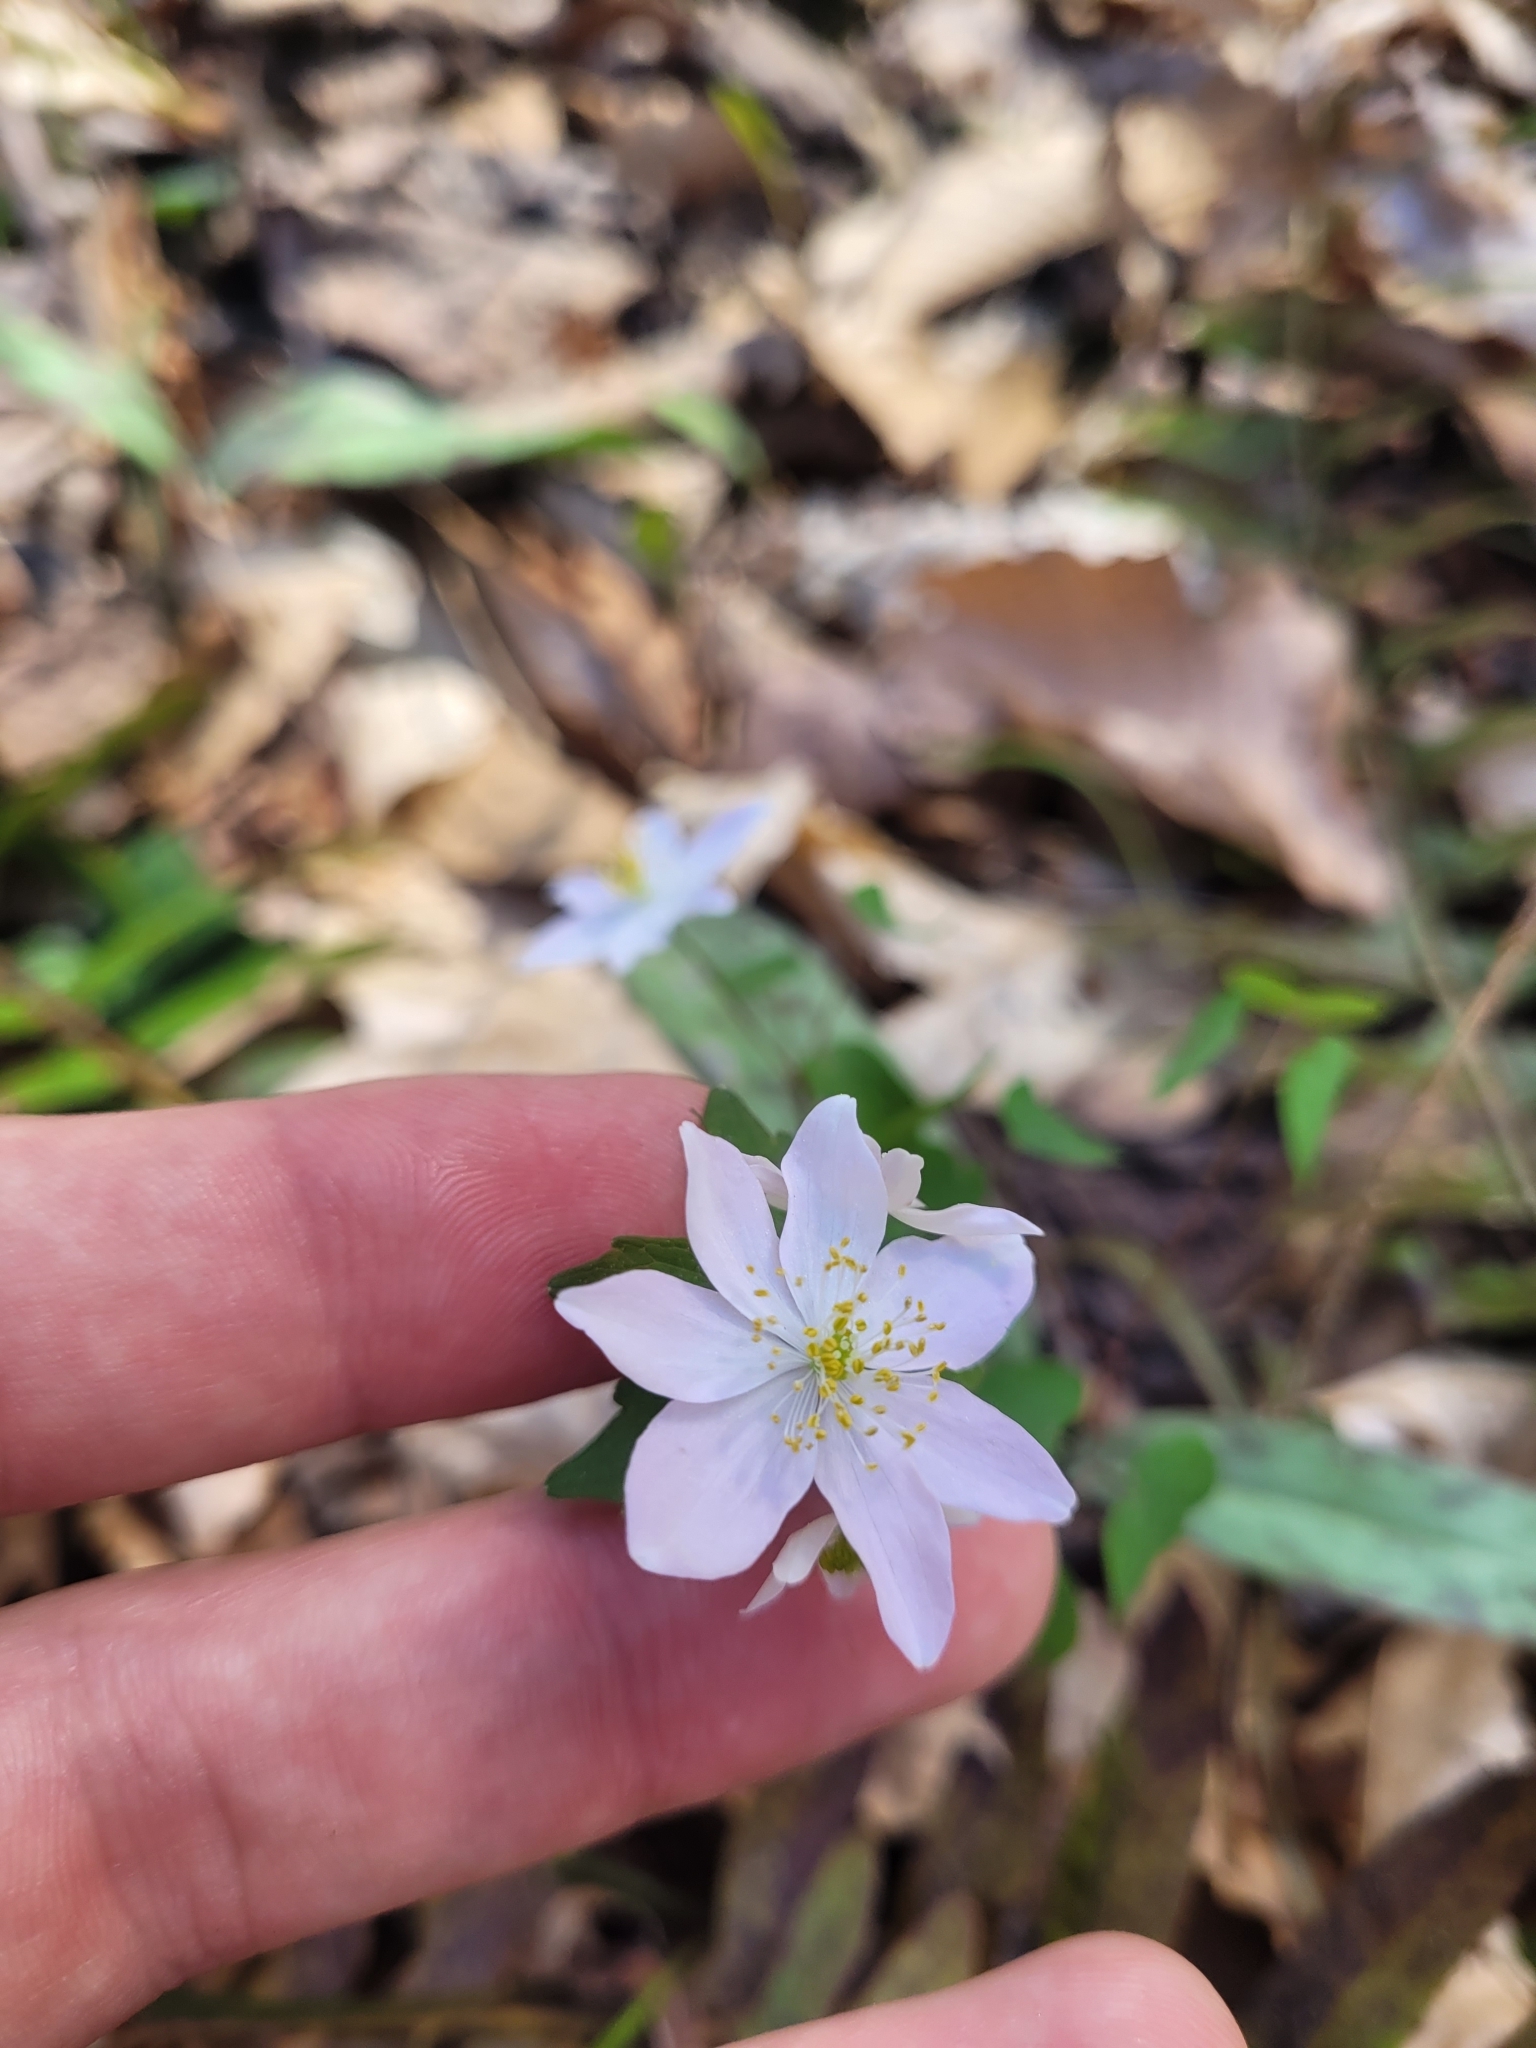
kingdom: Plantae
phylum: Tracheophyta
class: Magnoliopsida
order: Ranunculales
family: Ranunculaceae
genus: Thalictrum
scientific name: Thalictrum thalictroides
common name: Rue-anemone
